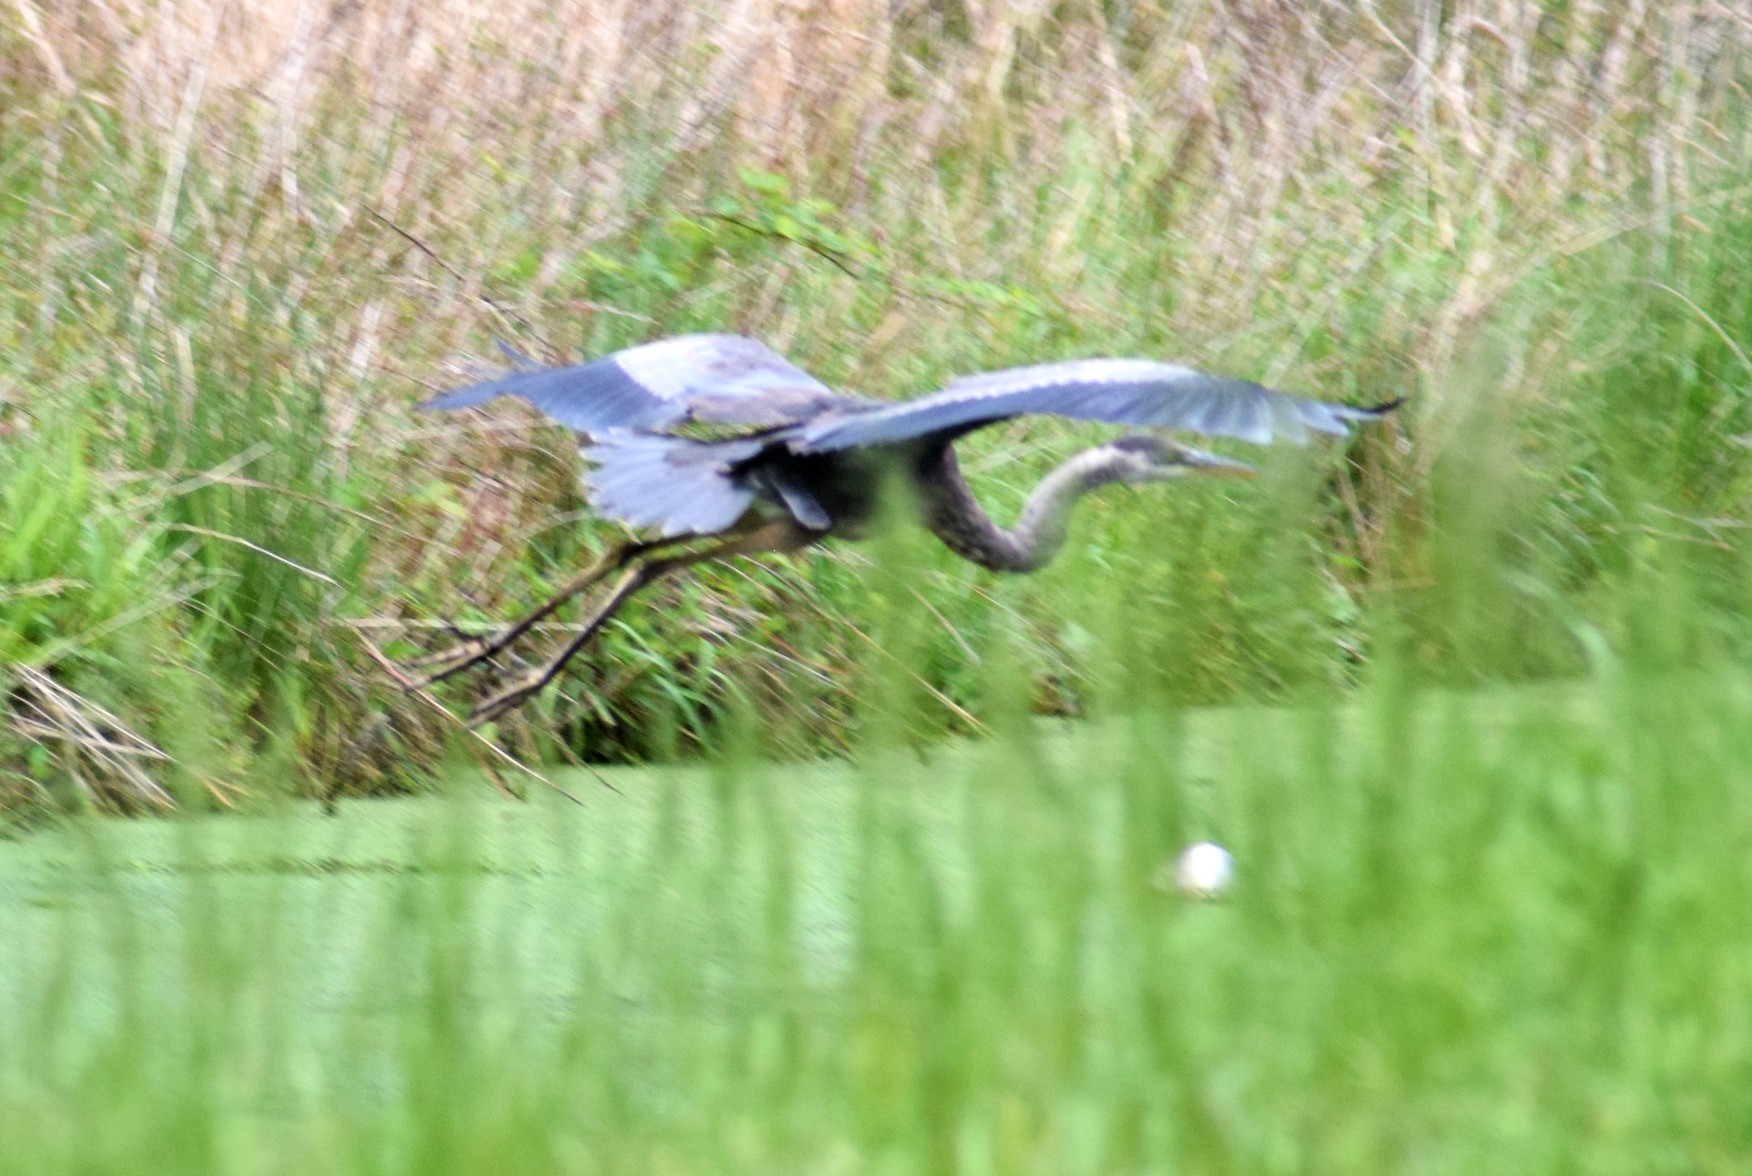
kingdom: Animalia
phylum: Chordata
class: Aves
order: Pelecaniformes
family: Ardeidae
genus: Ardea
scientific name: Ardea herodias
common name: Great blue heron
